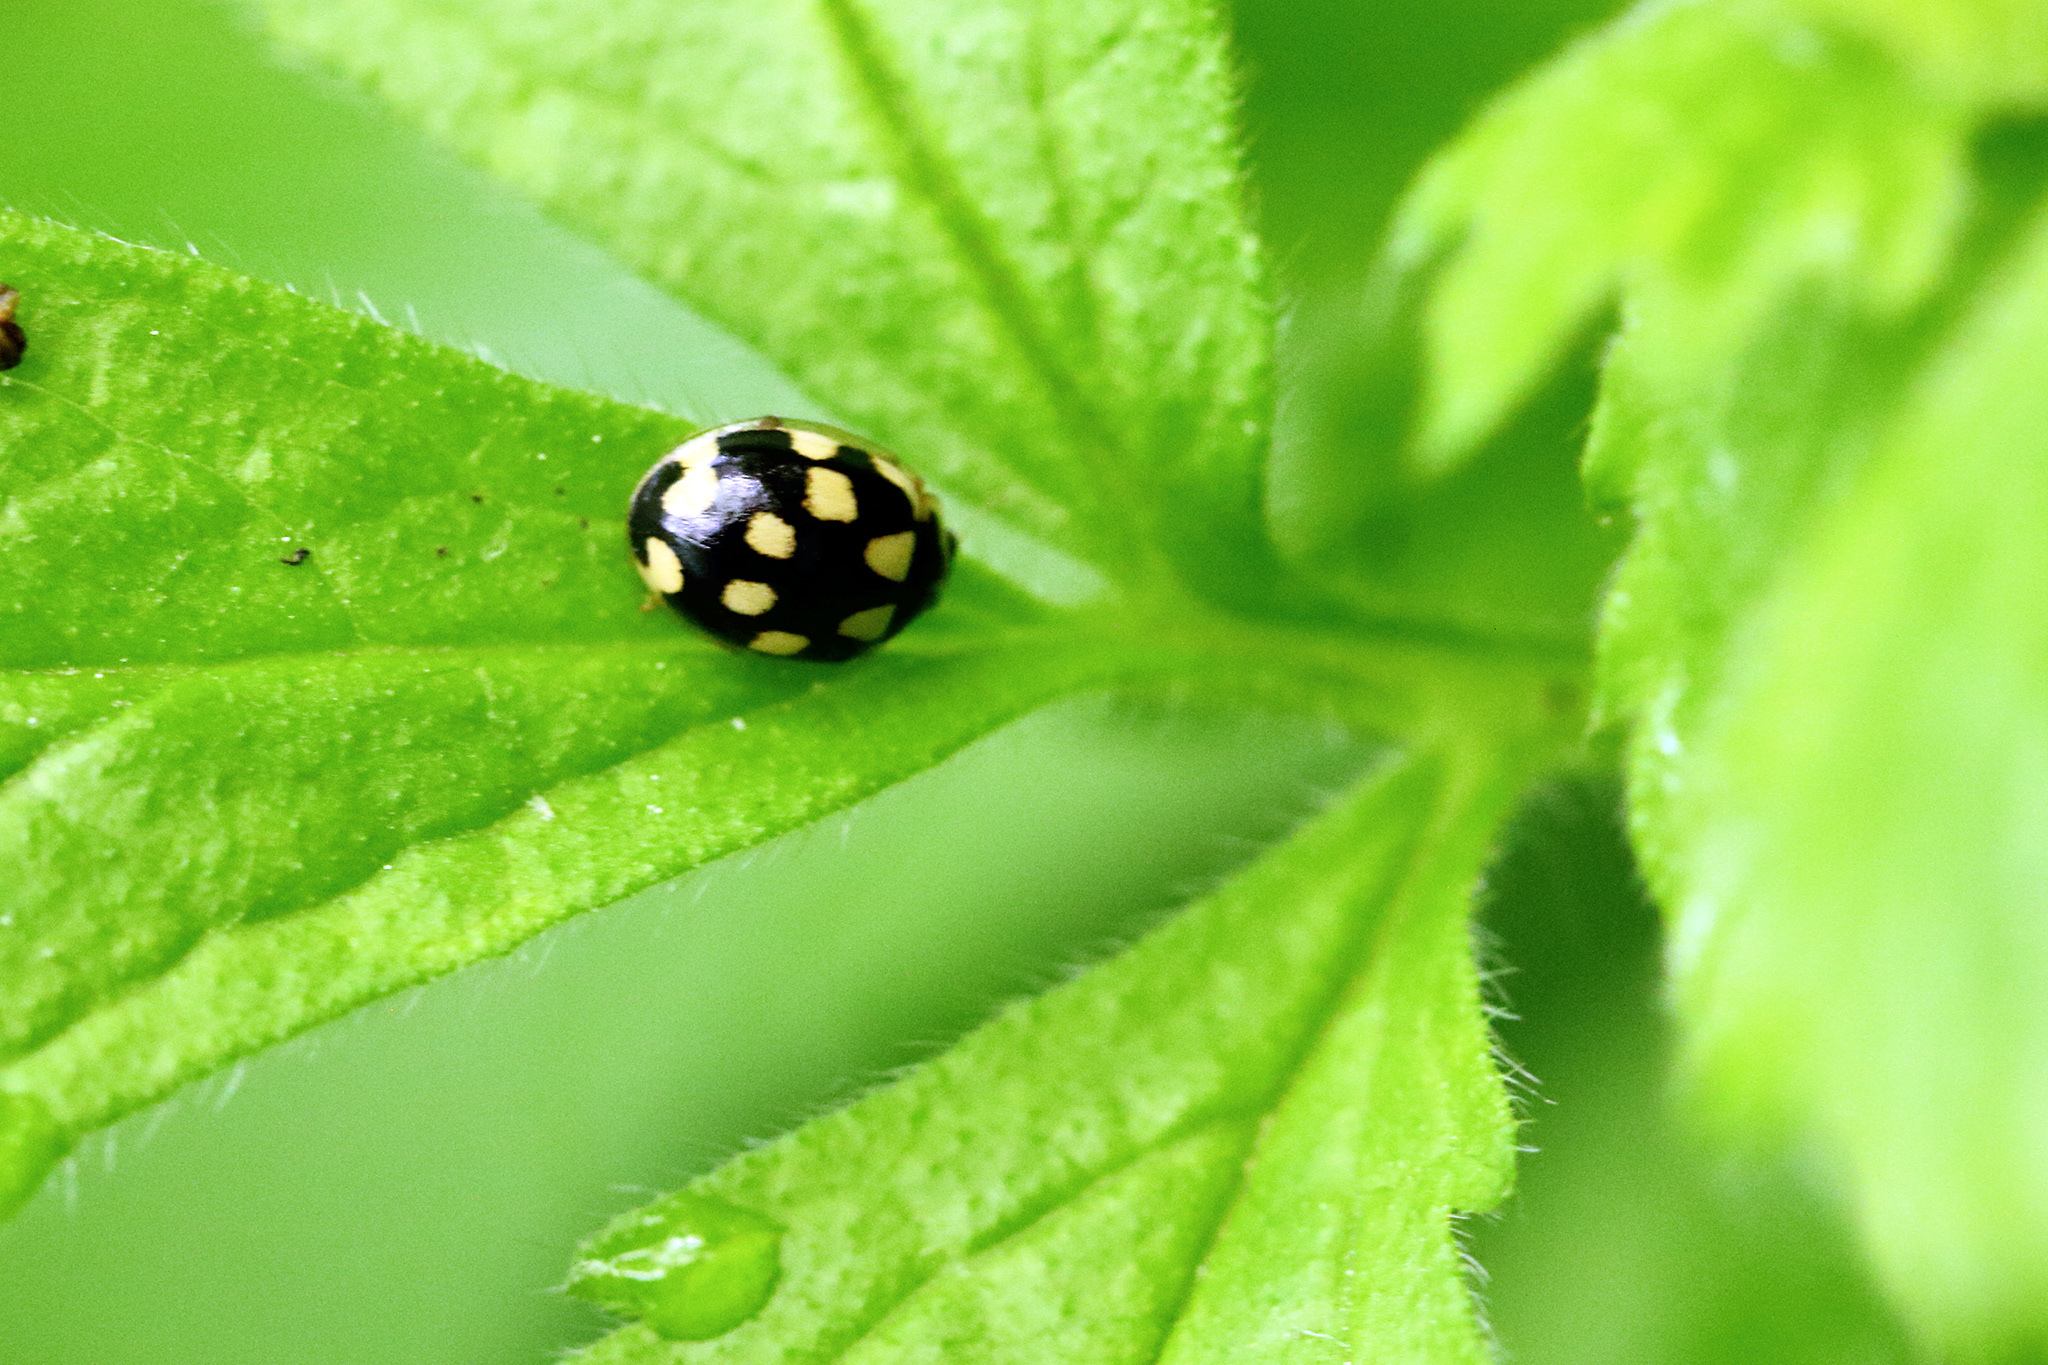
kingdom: Animalia
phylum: Arthropoda
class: Insecta
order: Coleoptera
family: Coccinellidae
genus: Propylaea
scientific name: Propylaea quatuordecimpunctata
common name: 14-spotted ladybird beetle
